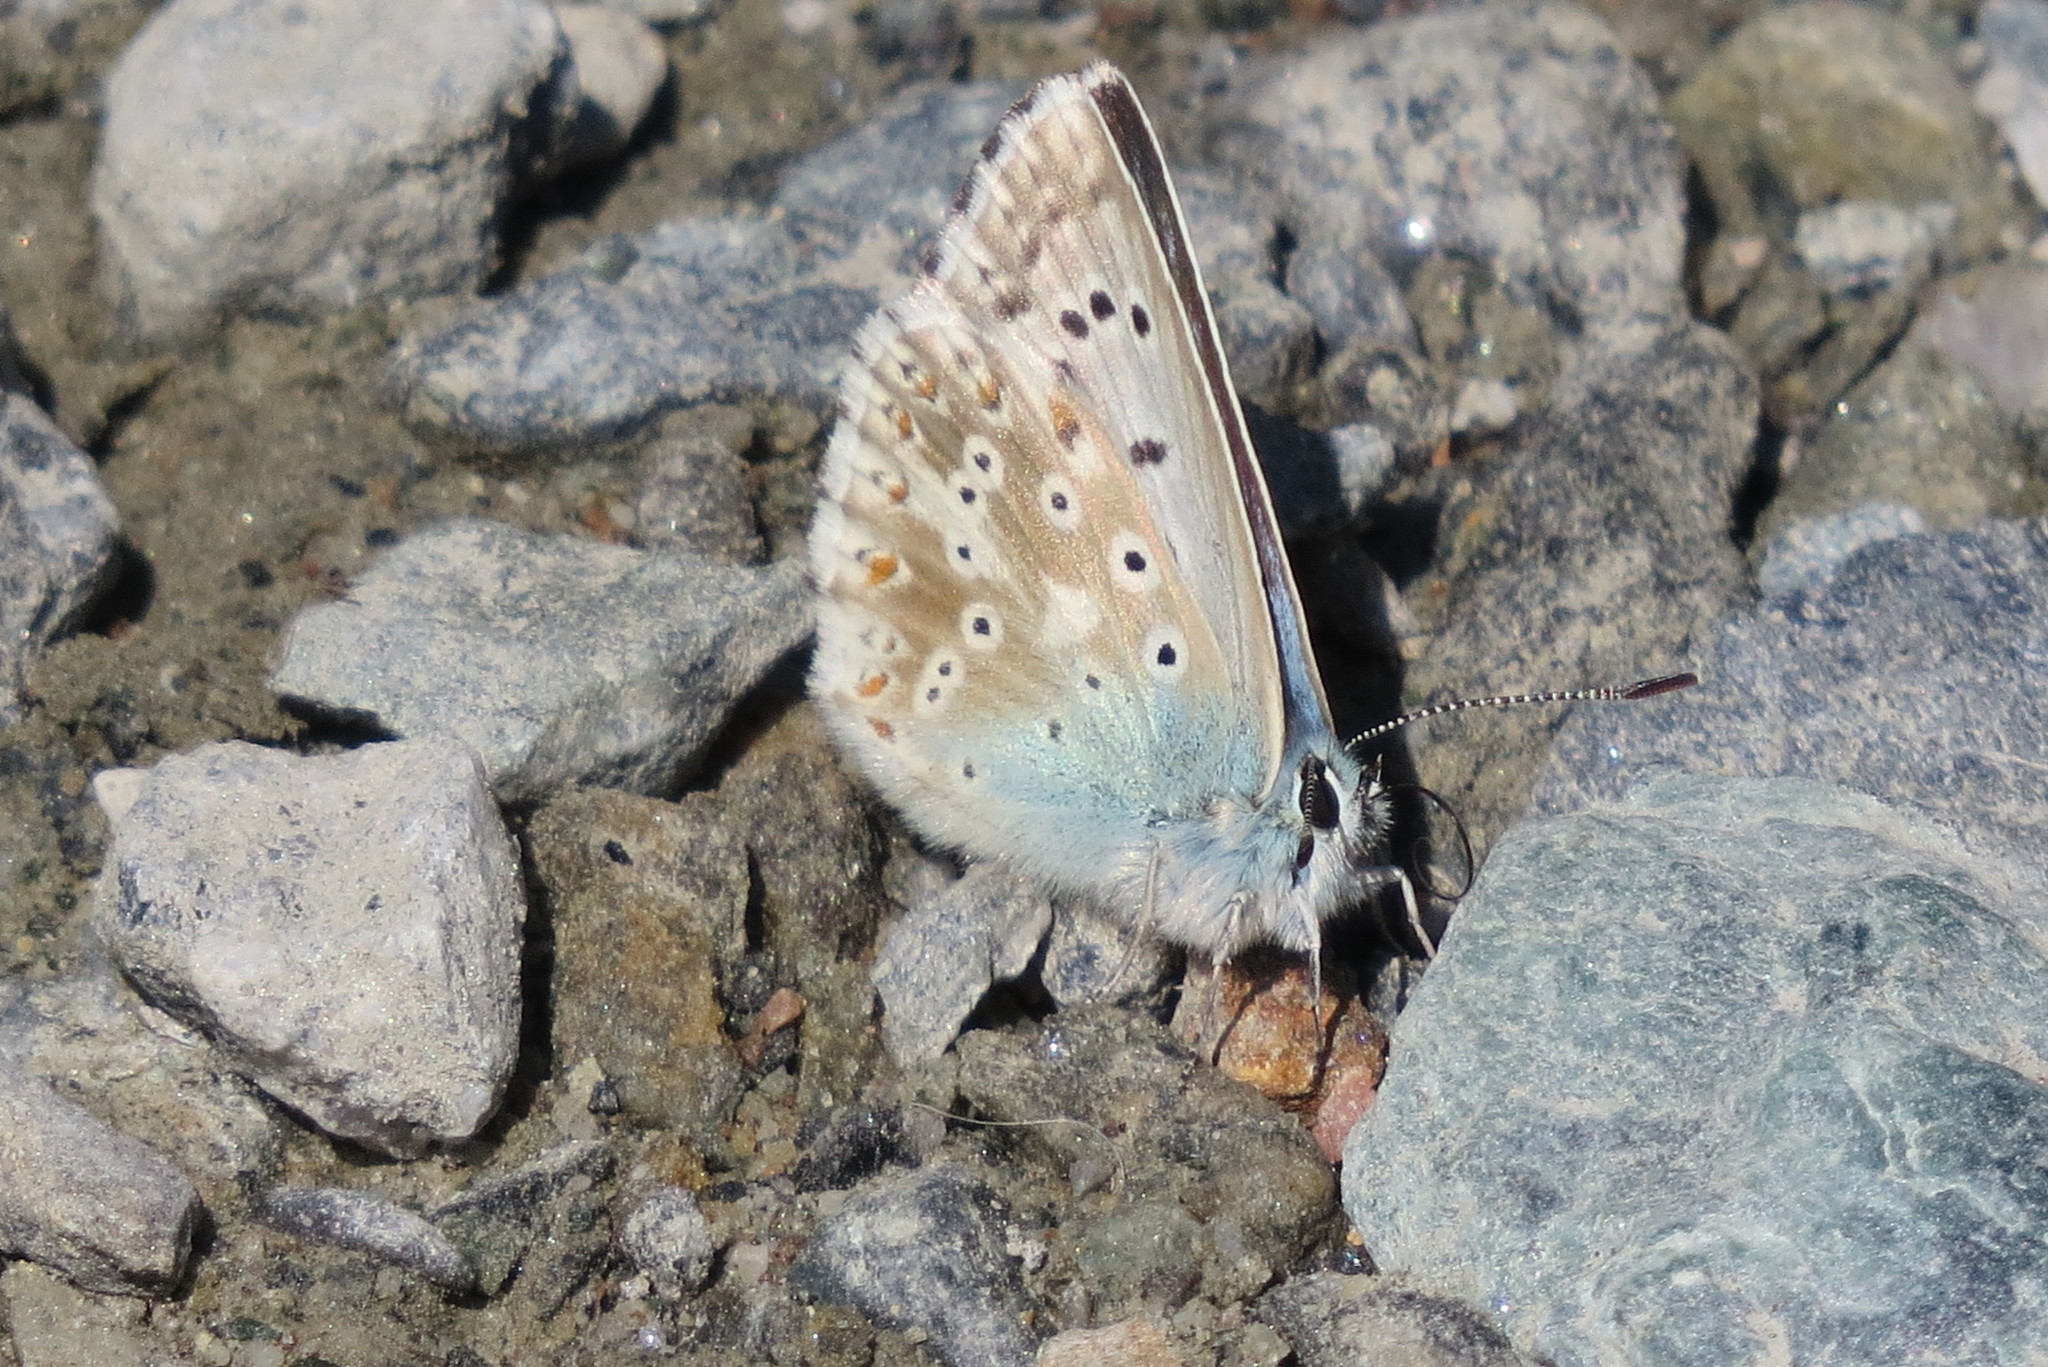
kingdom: Animalia
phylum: Arthropoda
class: Insecta
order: Lepidoptera
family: Lycaenidae
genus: Lysandra
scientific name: Lysandra coridon
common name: Chalkhill blue
